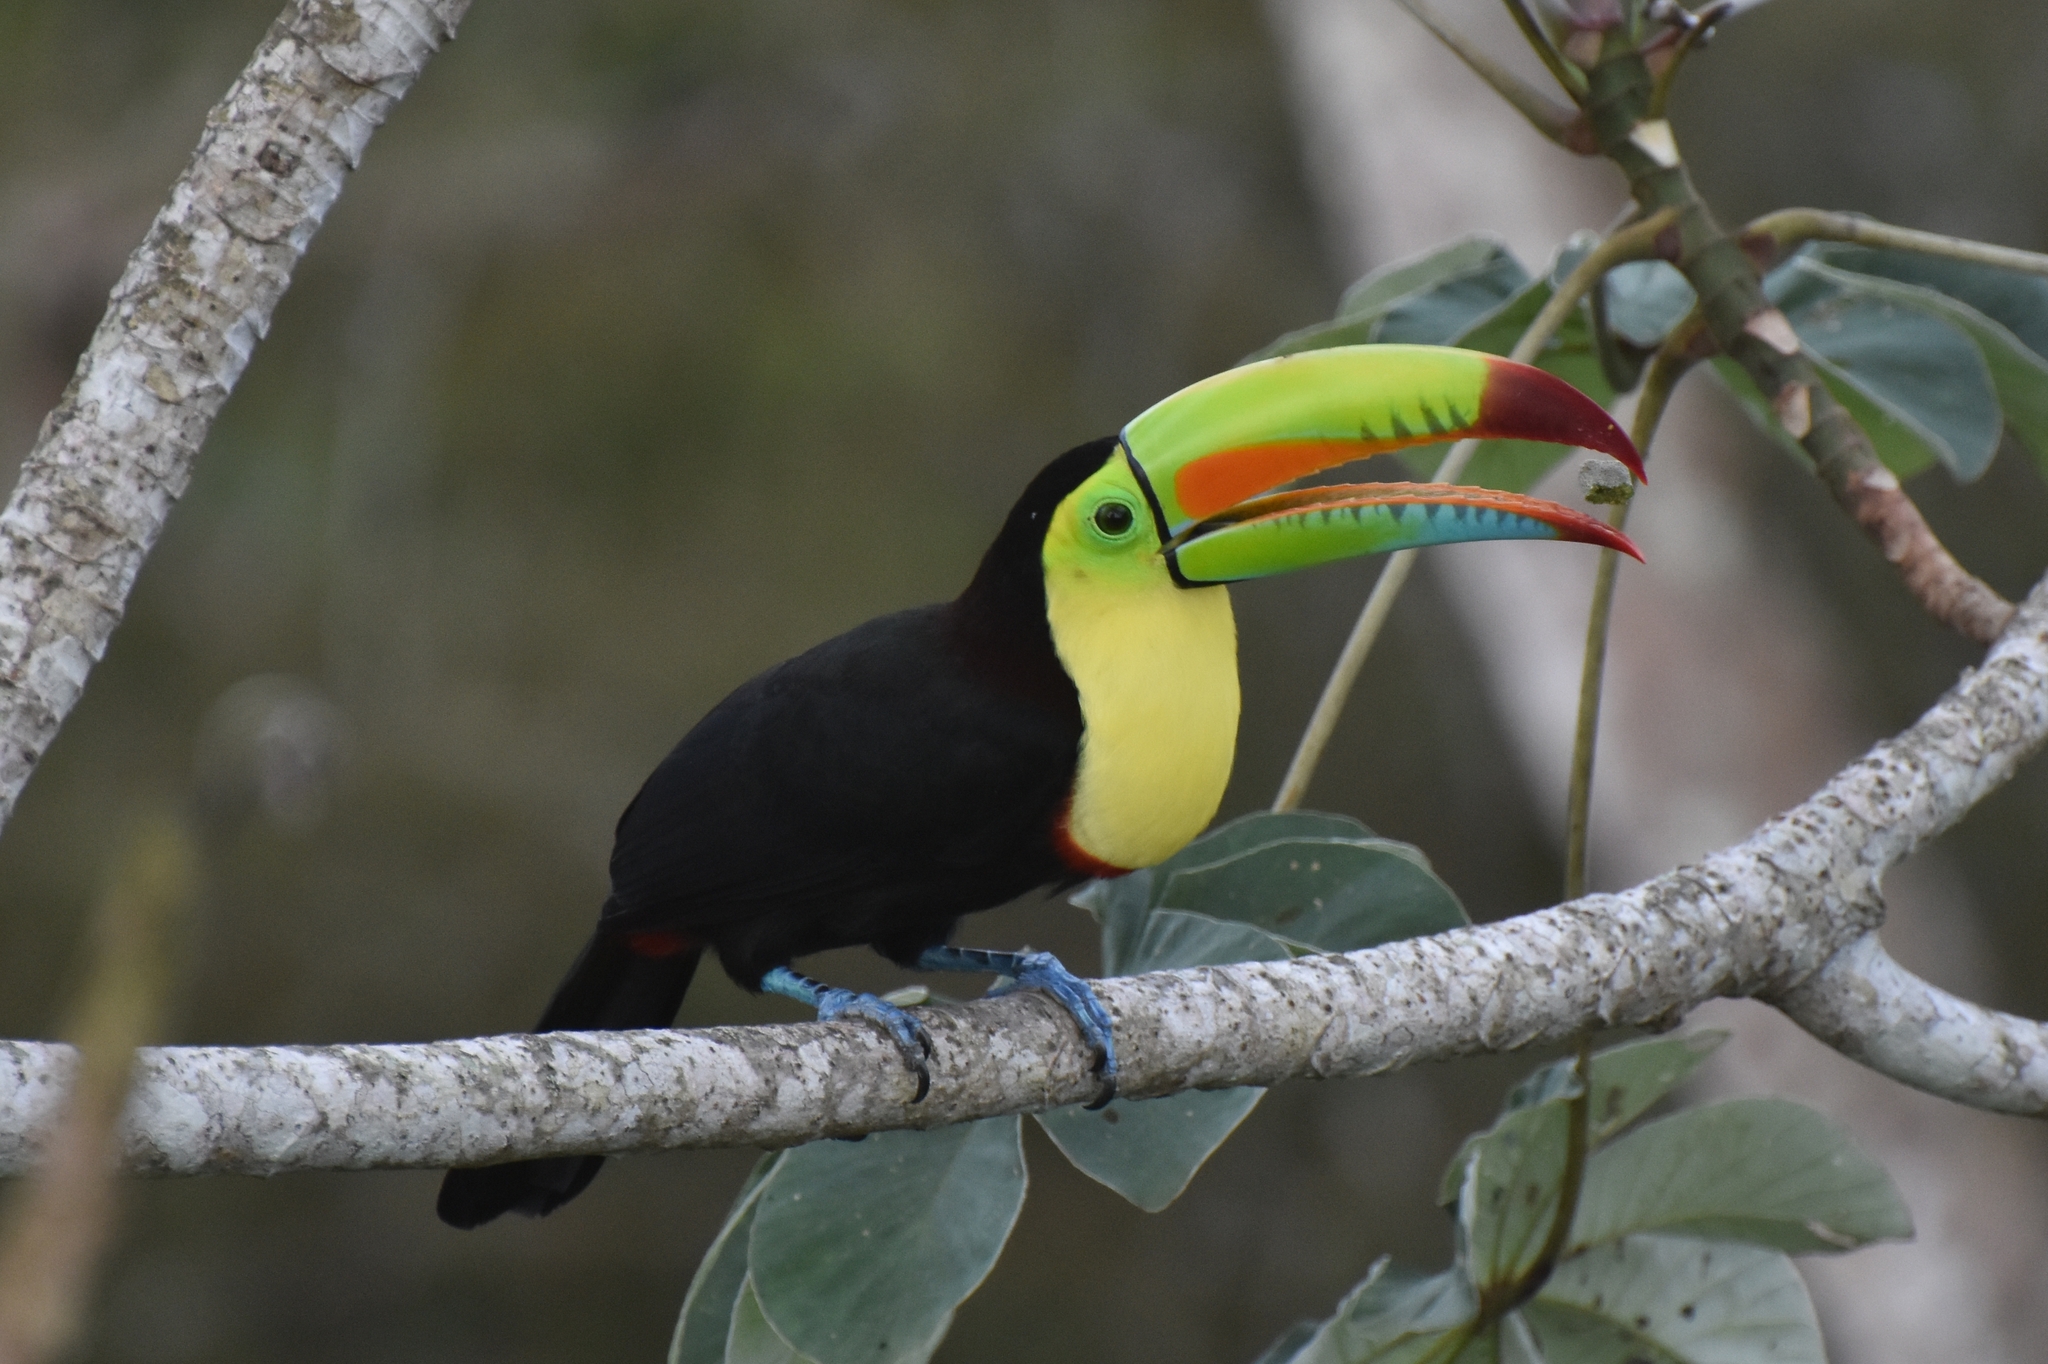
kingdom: Animalia
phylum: Chordata
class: Aves
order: Piciformes
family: Ramphastidae
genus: Ramphastos
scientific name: Ramphastos sulfuratus
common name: Keel-billed toucan
